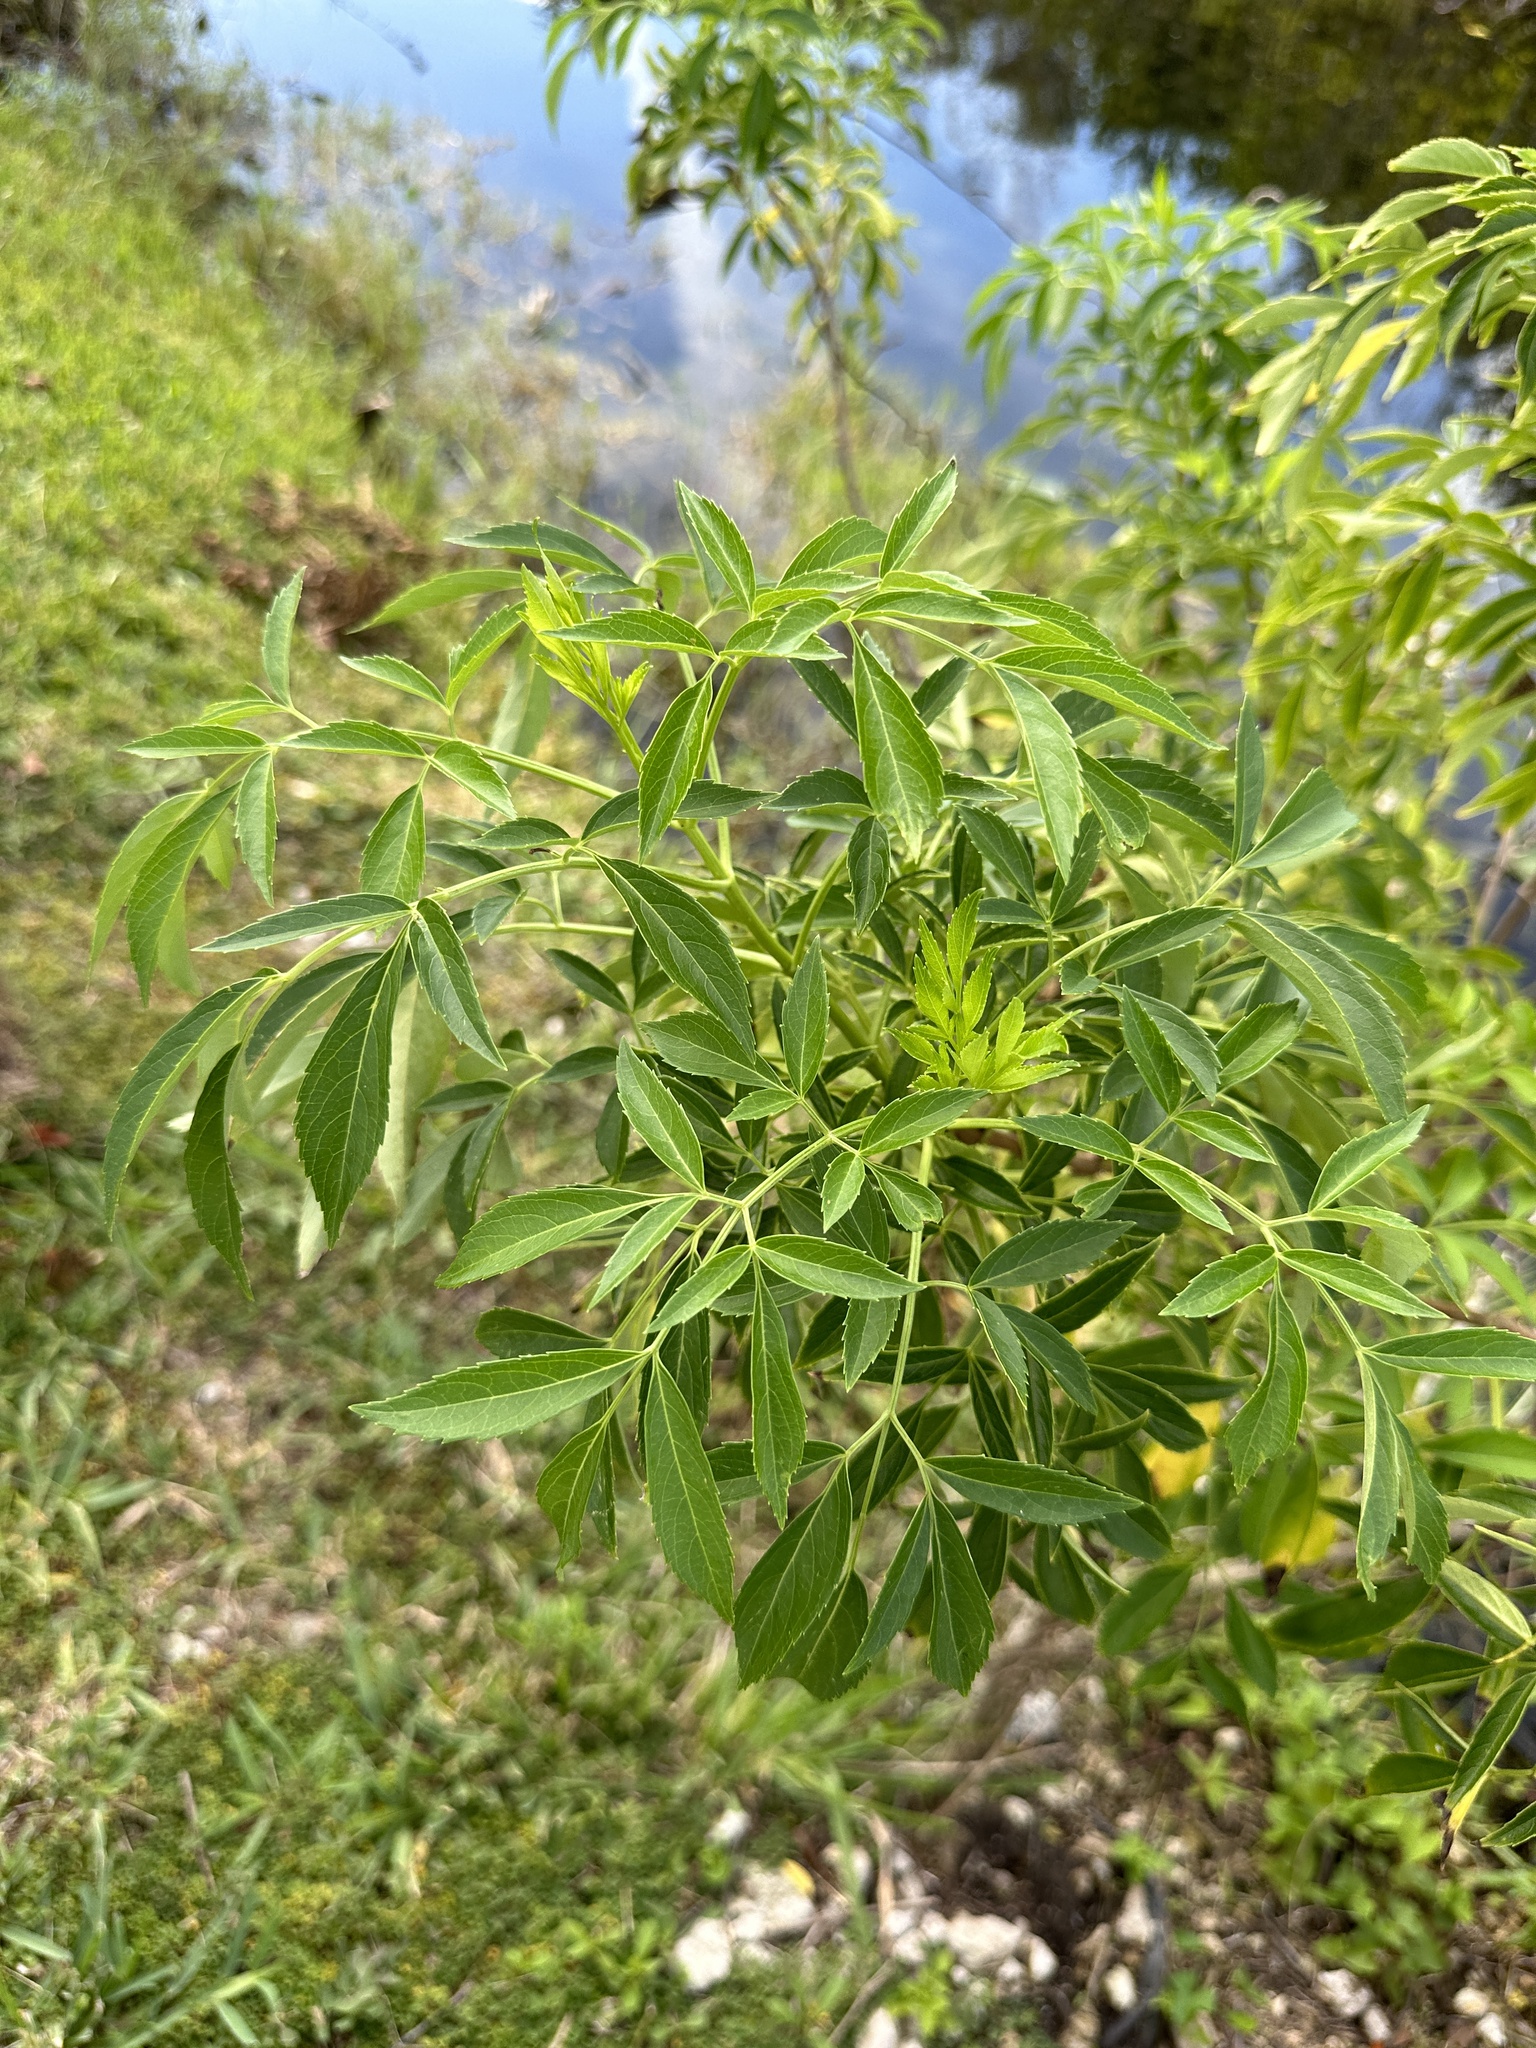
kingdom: Plantae
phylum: Tracheophyta
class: Magnoliopsida
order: Dipsacales
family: Viburnaceae
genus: Sambucus
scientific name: Sambucus canadensis
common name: American elder
